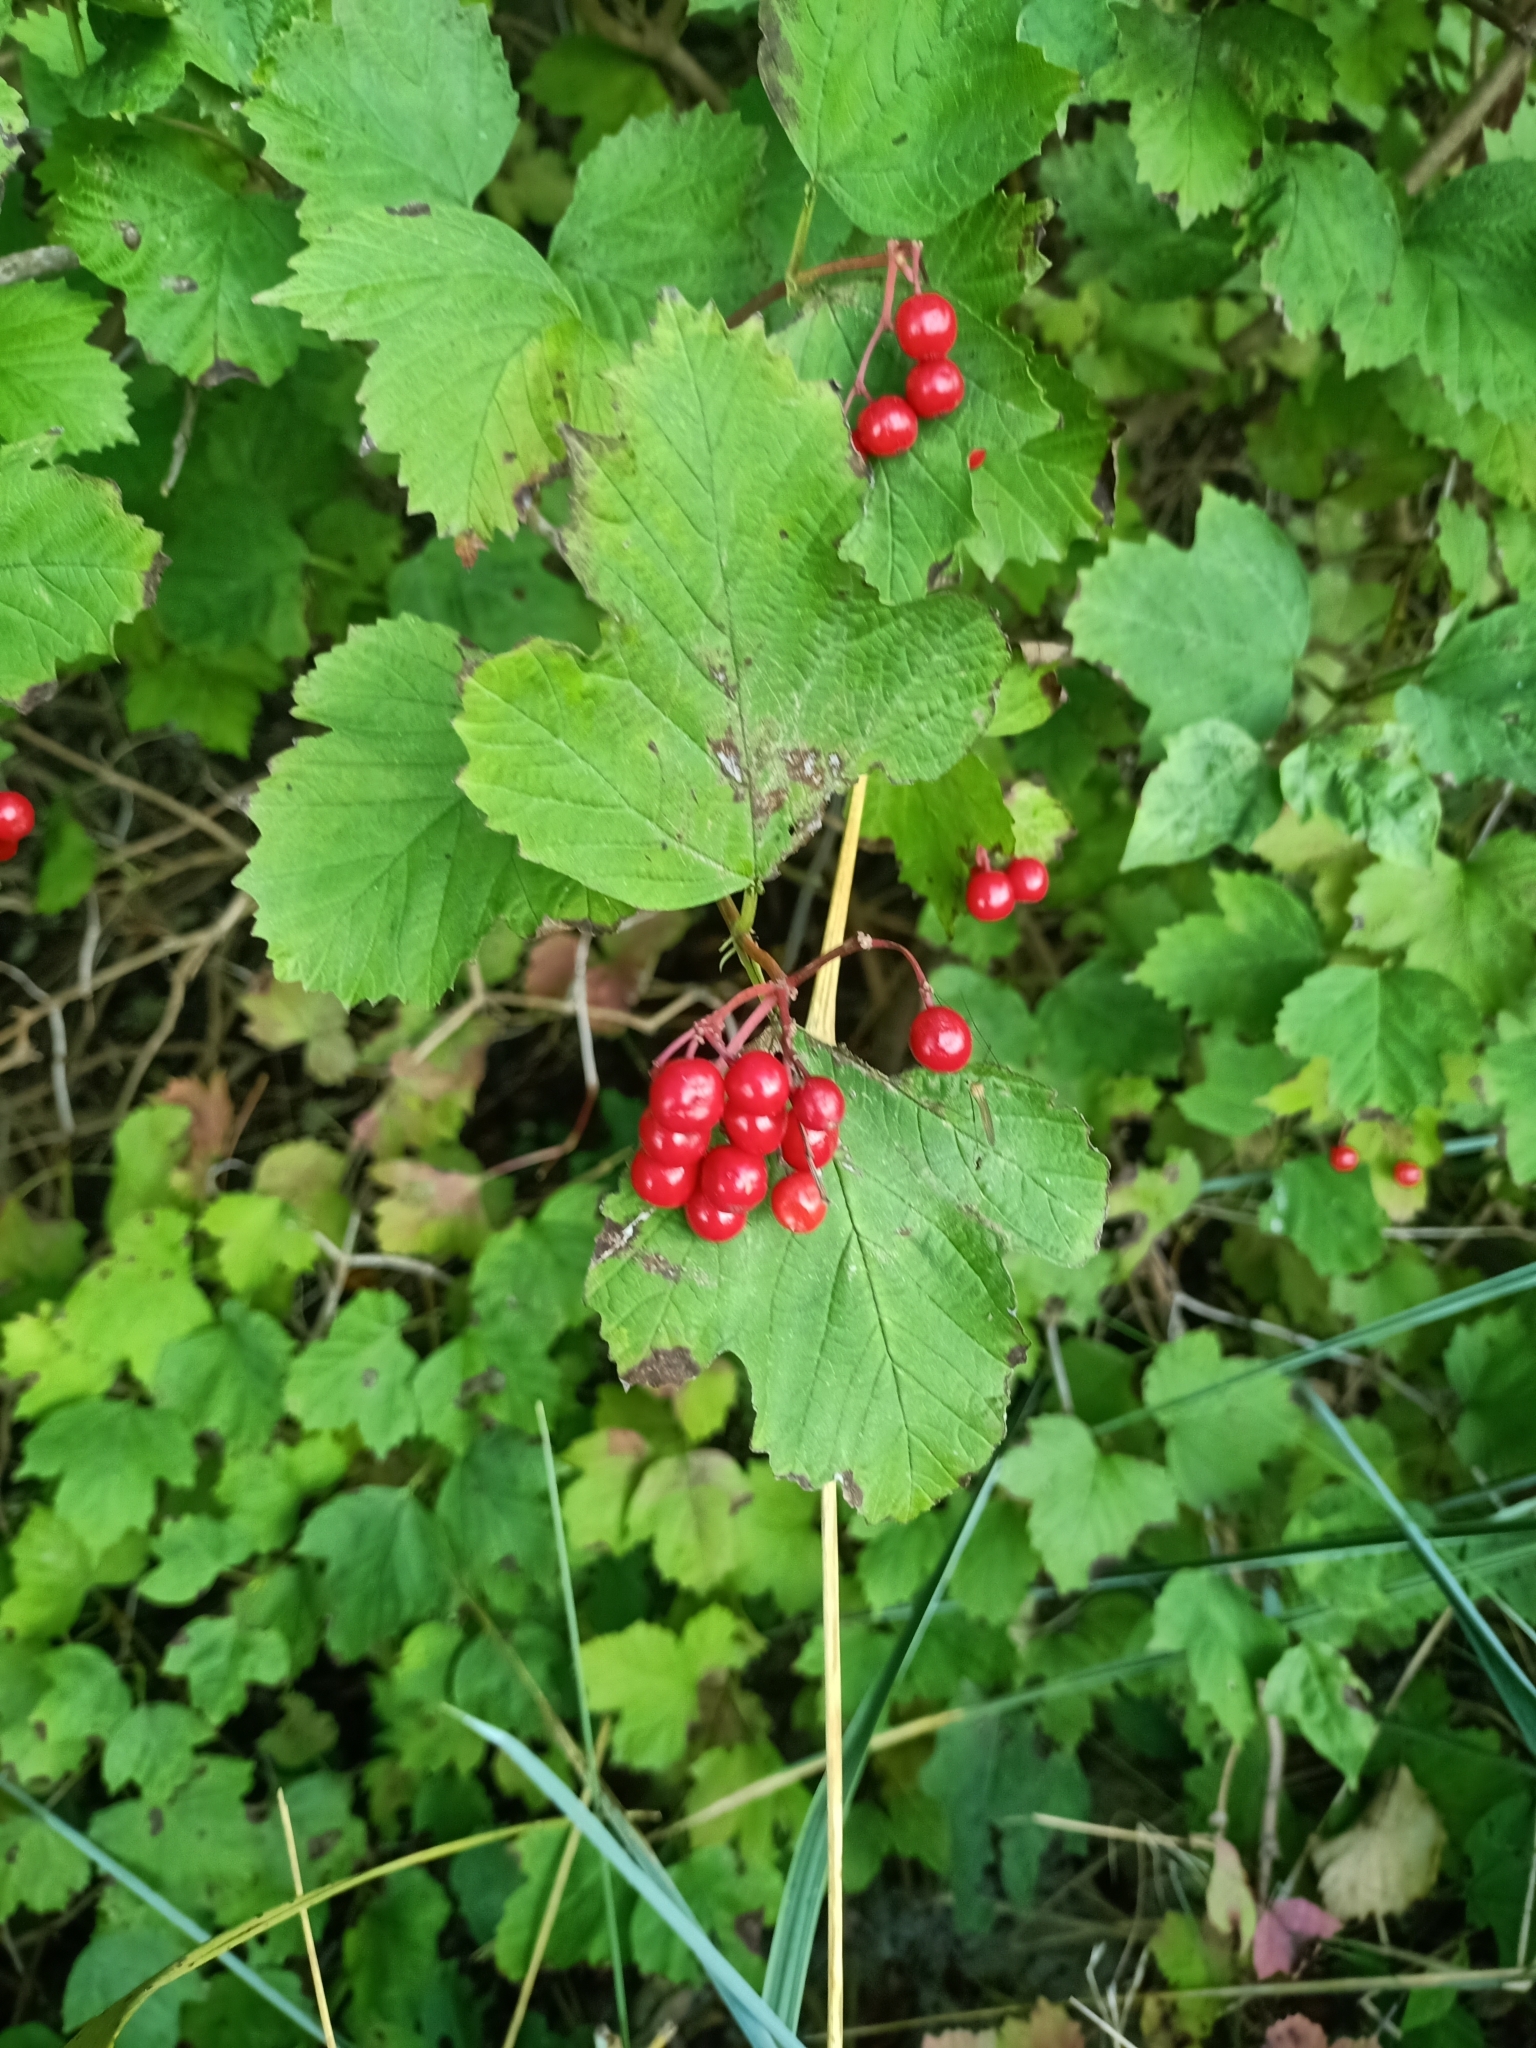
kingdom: Plantae
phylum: Tracheophyta
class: Magnoliopsida
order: Dipsacales
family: Viburnaceae
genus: Viburnum
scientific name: Viburnum opulus
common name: Guelder-rose
